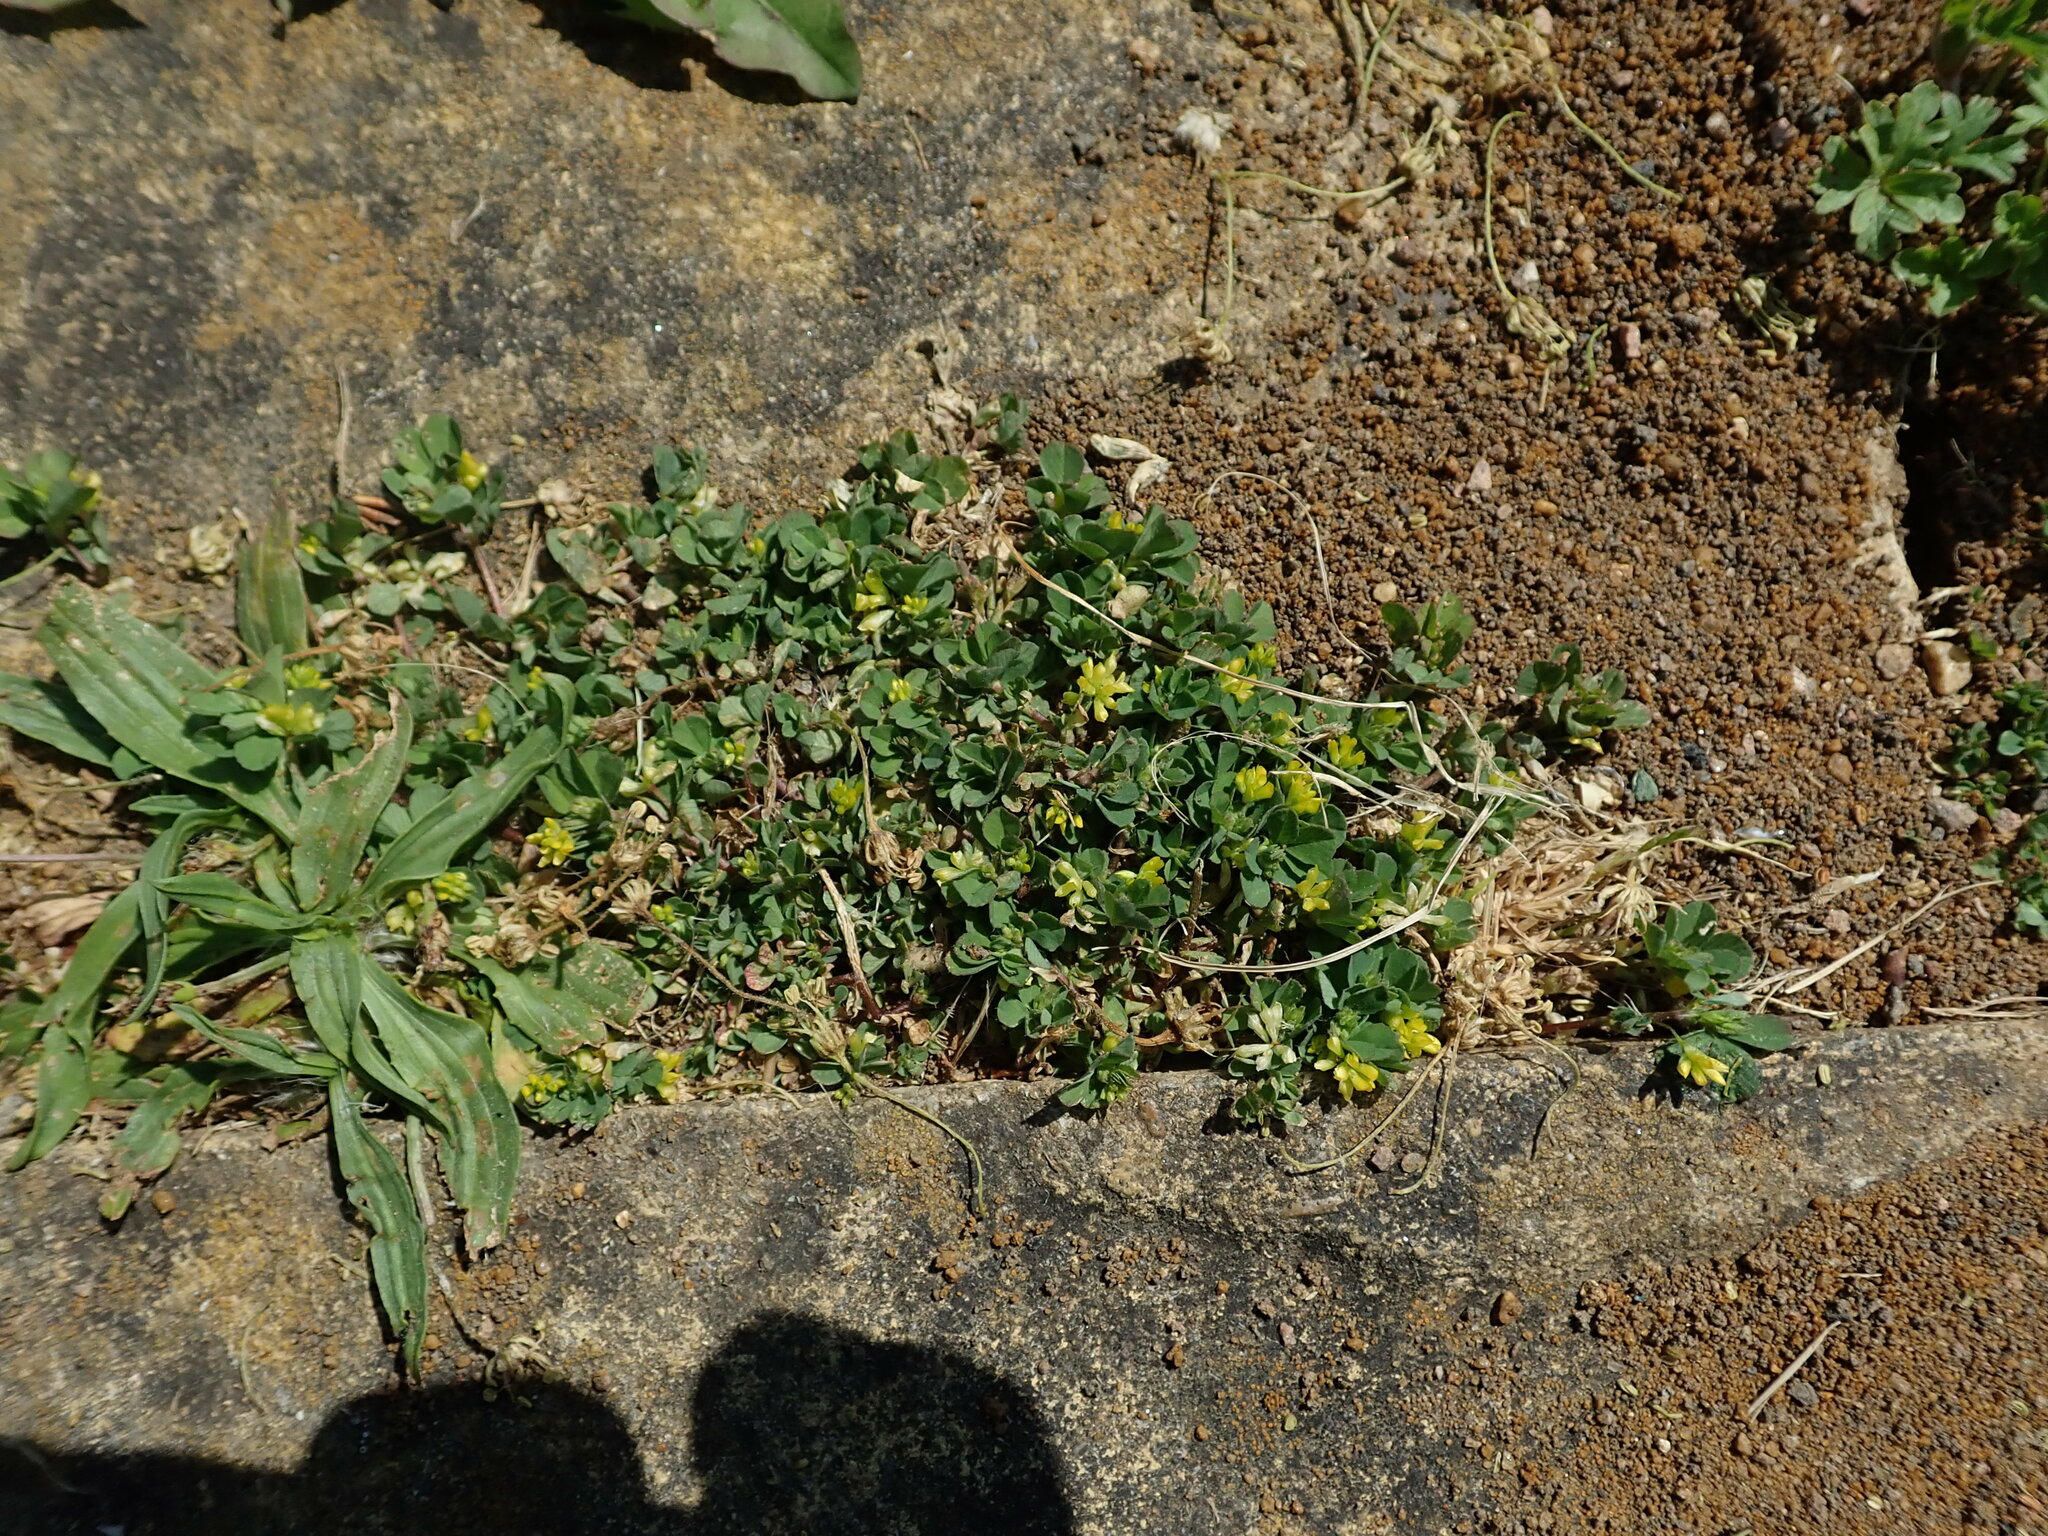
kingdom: Plantae
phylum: Tracheophyta
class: Magnoliopsida
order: Fabales
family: Fabaceae
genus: Trifolium
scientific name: Trifolium dubium
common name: Suckling clover
